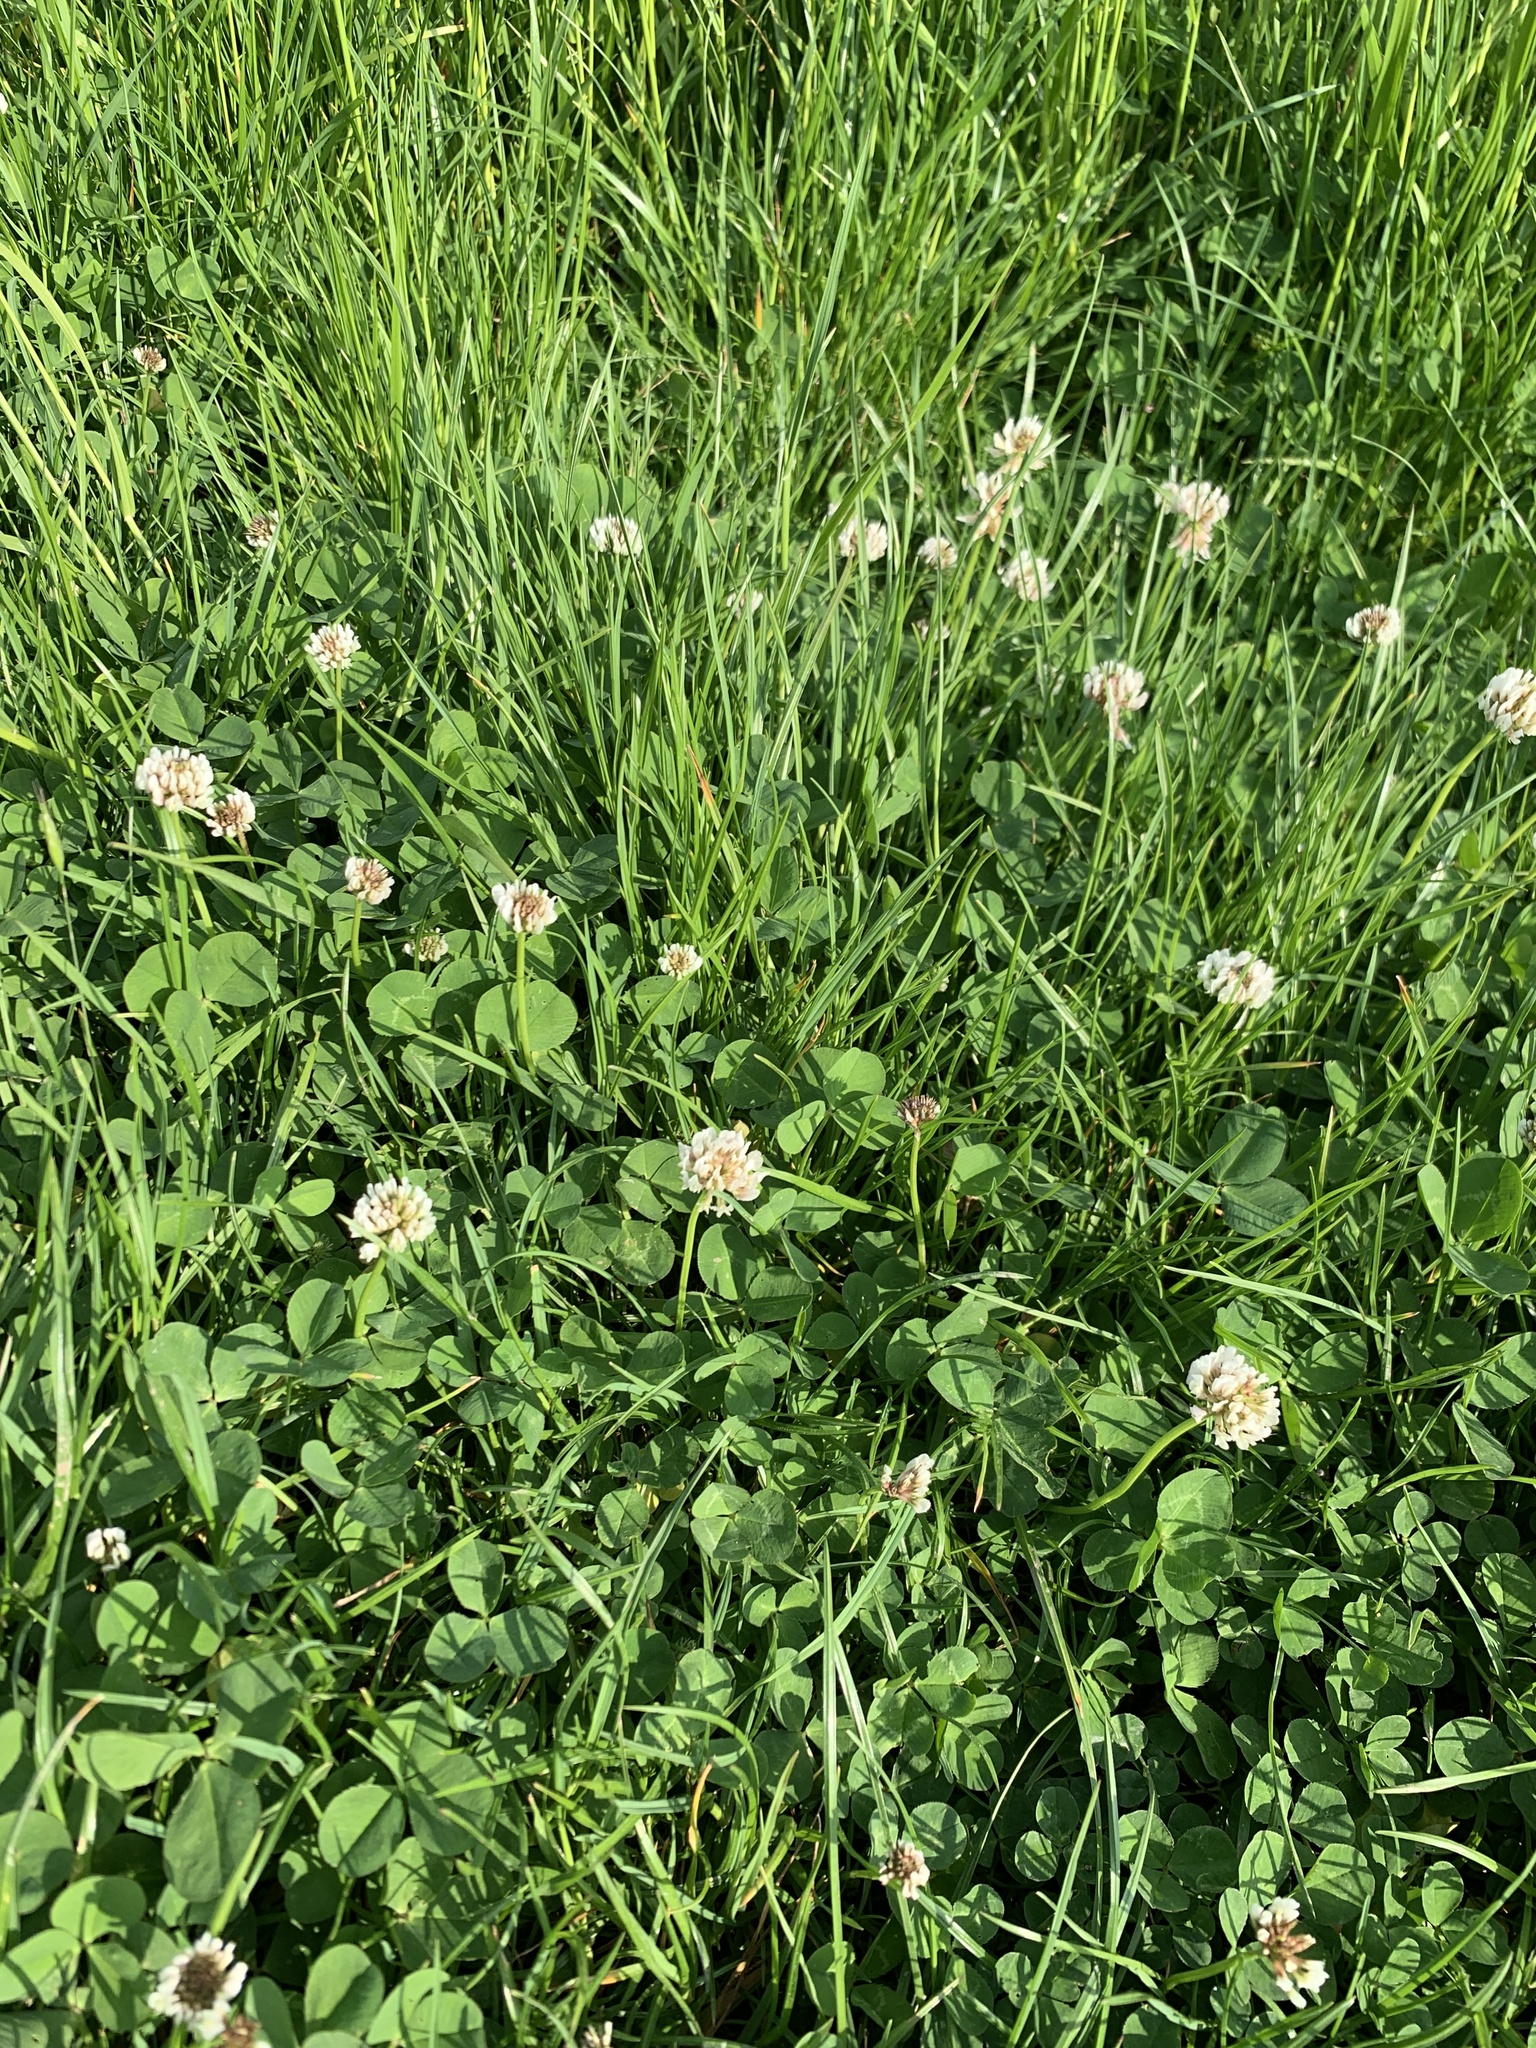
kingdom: Plantae
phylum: Tracheophyta
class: Magnoliopsida
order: Fabales
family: Fabaceae
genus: Trifolium
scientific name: Trifolium repens
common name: White clover
